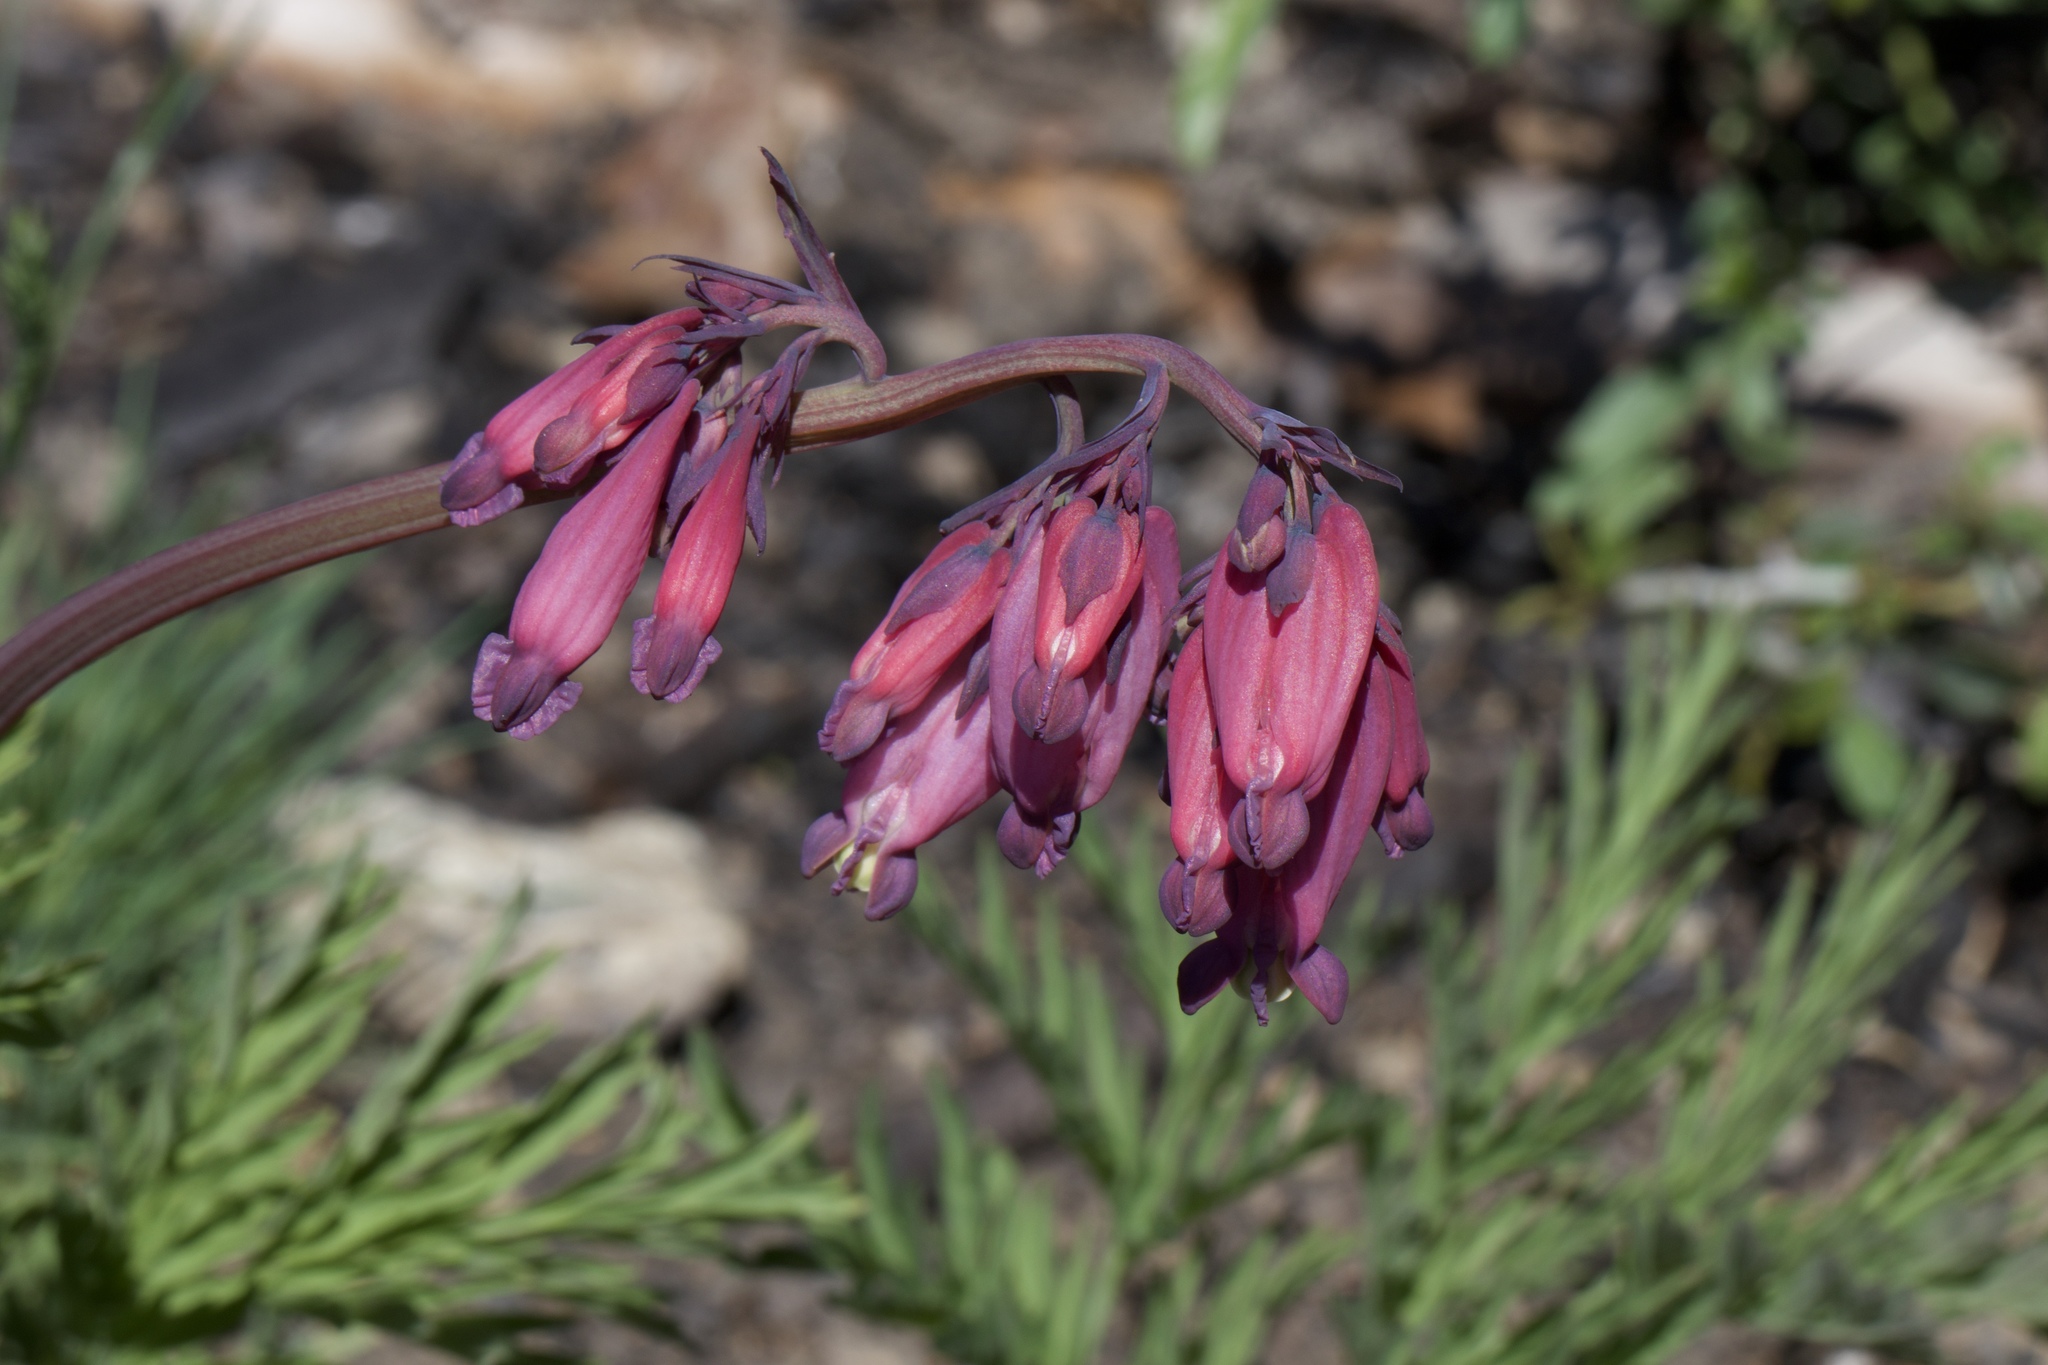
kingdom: Plantae
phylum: Tracheophyta
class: Magnoliopsida
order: Ranunculales
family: Papaveraceae
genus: Dicentra
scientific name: Dicentra formosa
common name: Bleeding-heart
